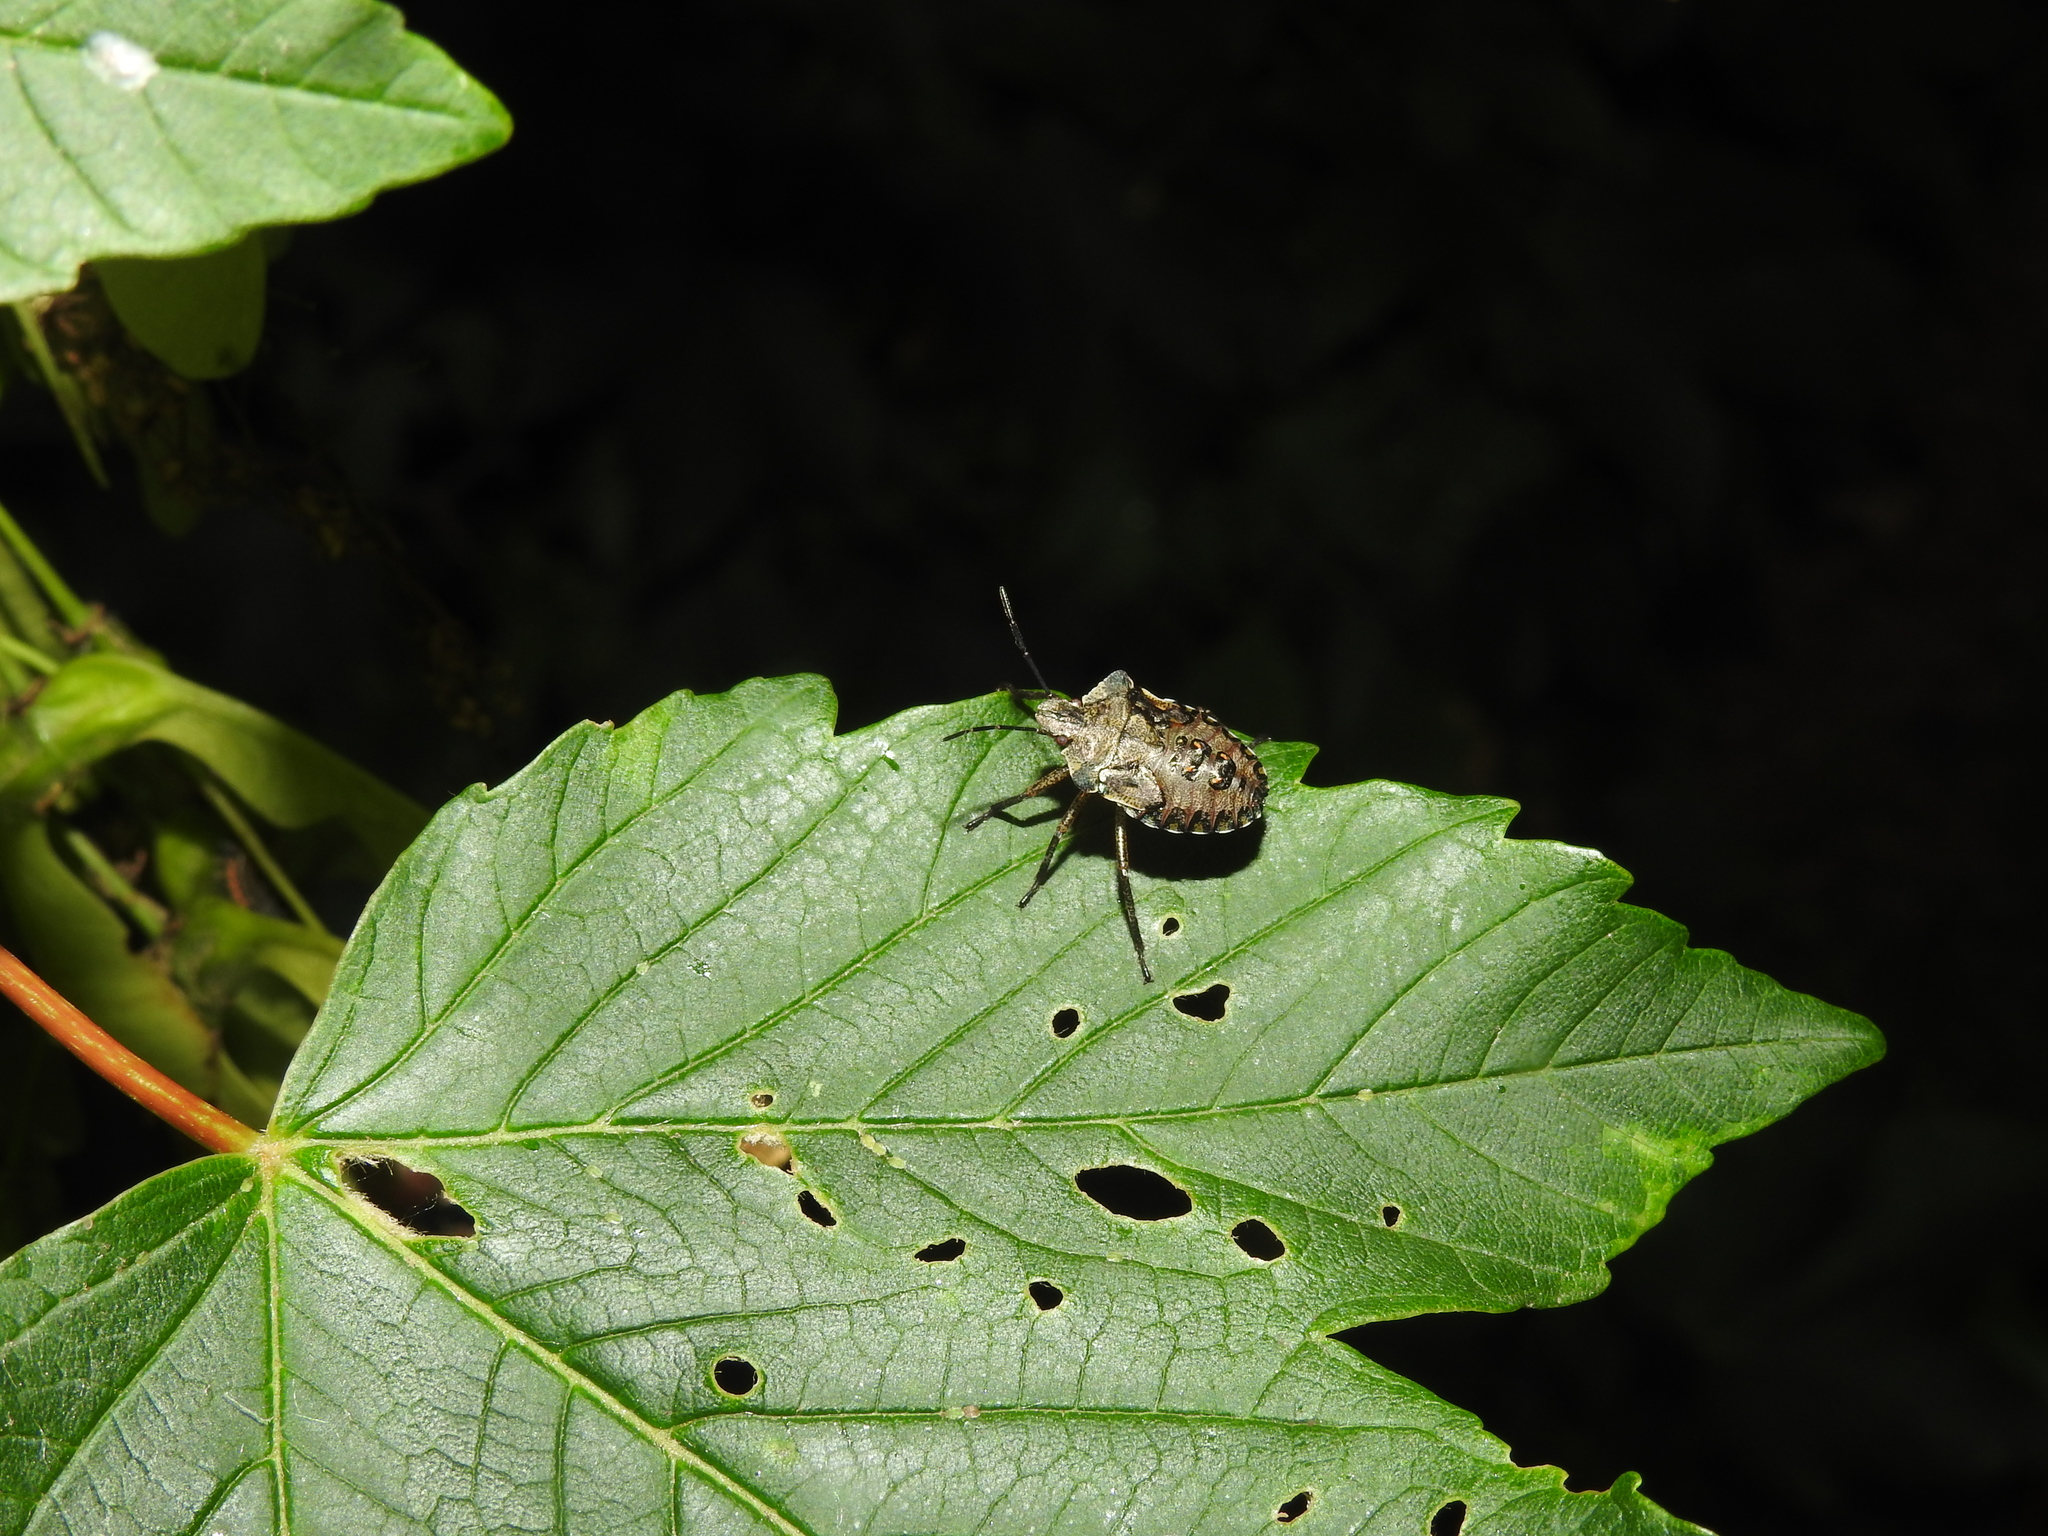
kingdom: Animalia
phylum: Arthropoda
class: Insecta
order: Hemiptera
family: Pentatomidae
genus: Pentatoma
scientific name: Pentatoma rufipes
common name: Forest bug
